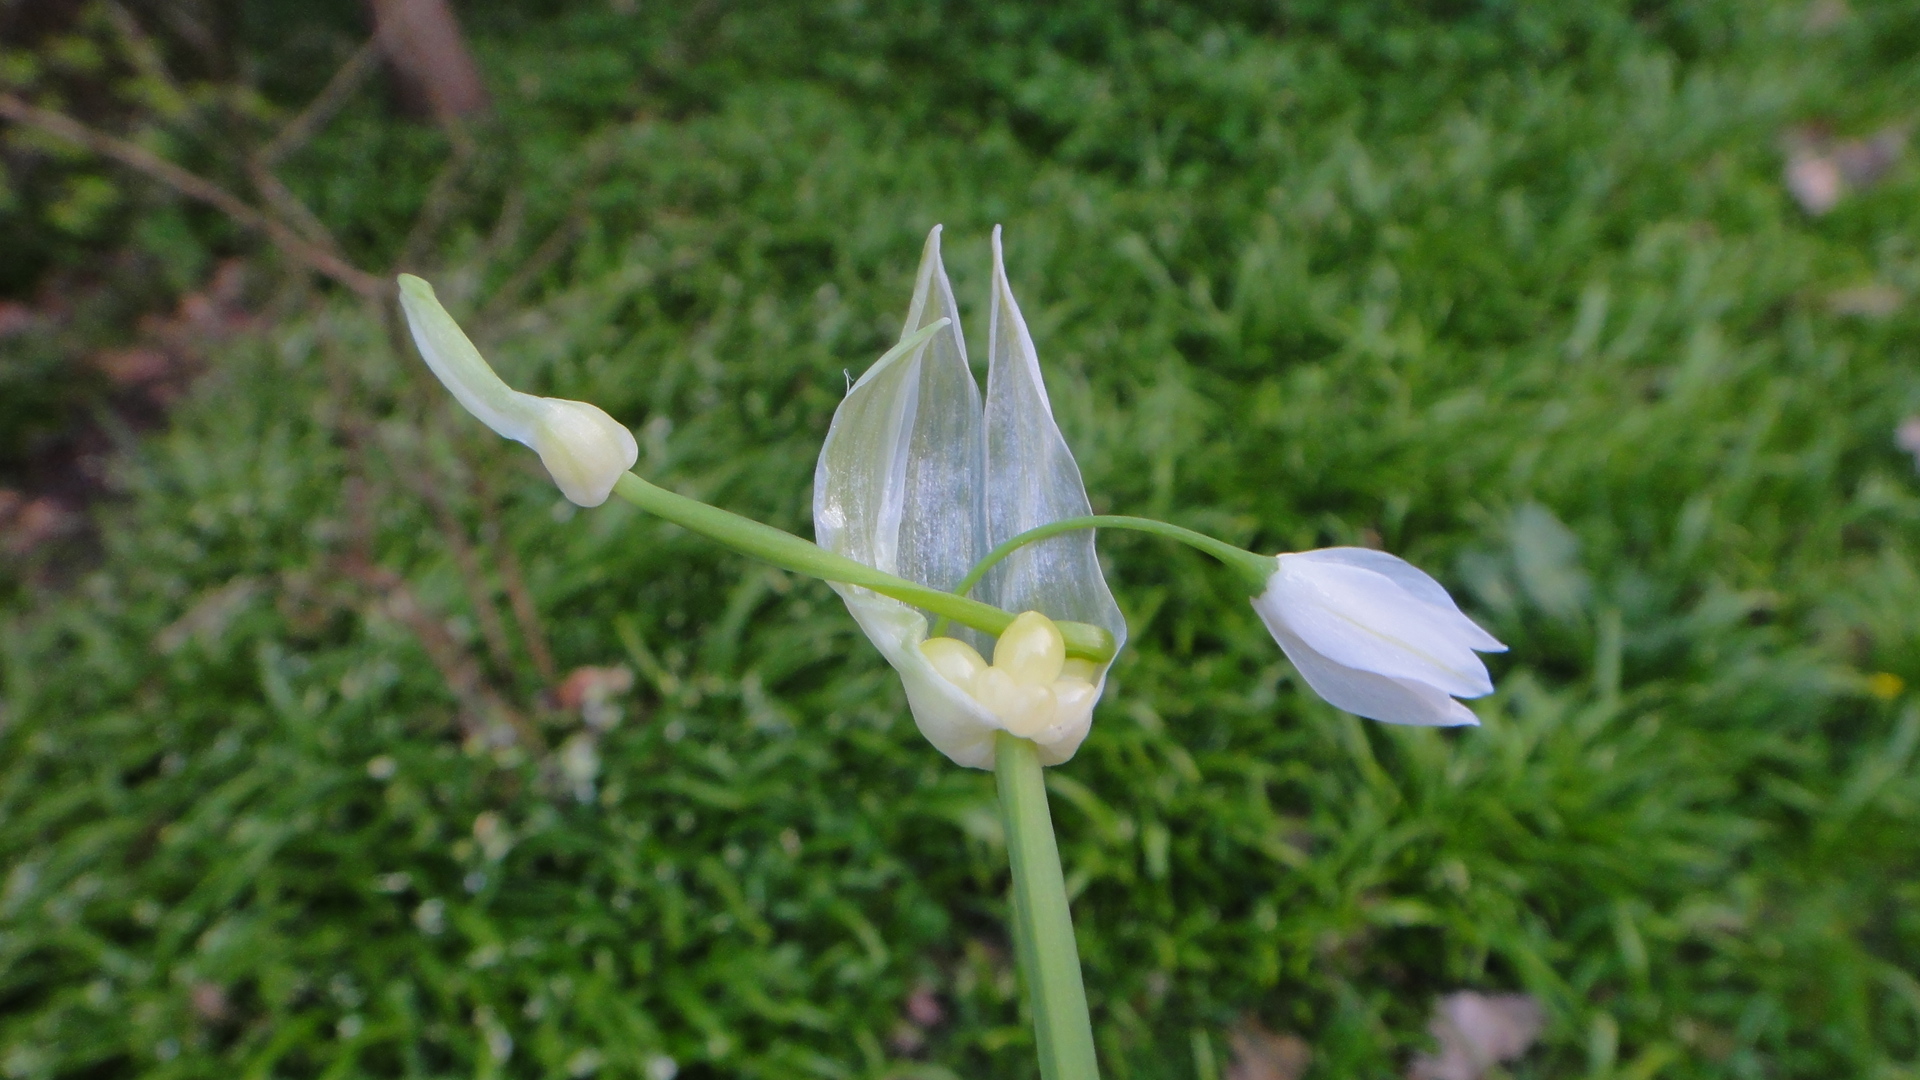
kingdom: Plantae
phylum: Tracheophyta
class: Liliopsida
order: Asparagales
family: Amaryllidaceae
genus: Allium
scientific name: Allium paradoxum
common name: Few-flowered garlic
